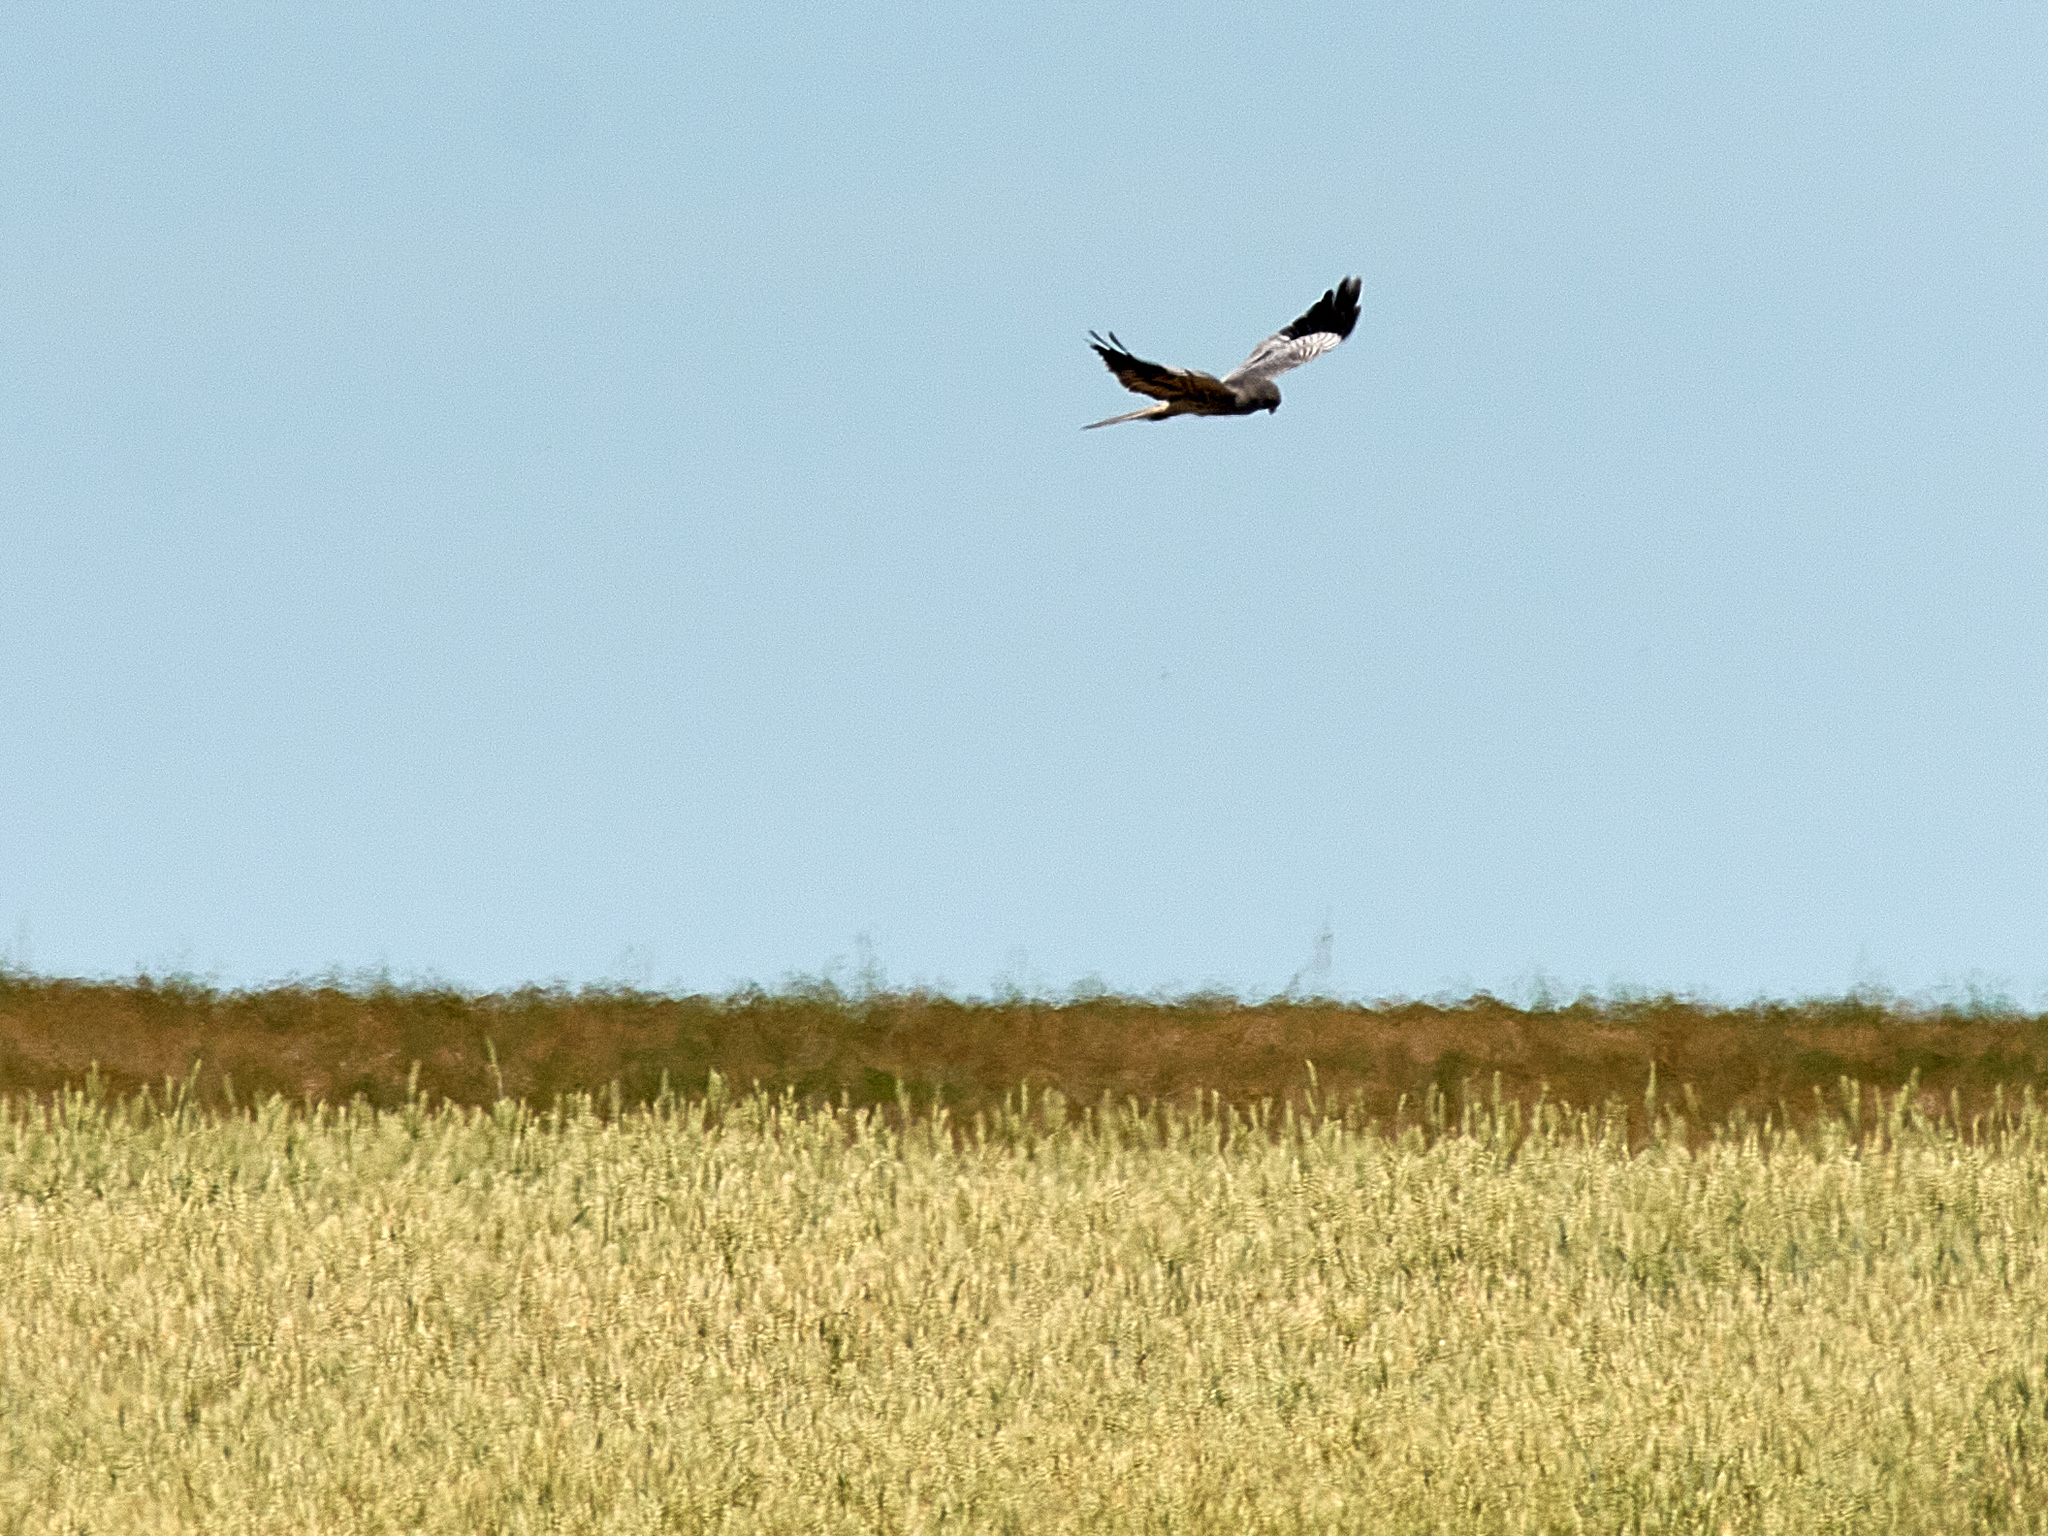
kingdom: Animalia
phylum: Chordata
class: Aves
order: Accipitriformes
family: Accipitridae
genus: Circus
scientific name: Circus pygargus
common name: Montagu's harrier
